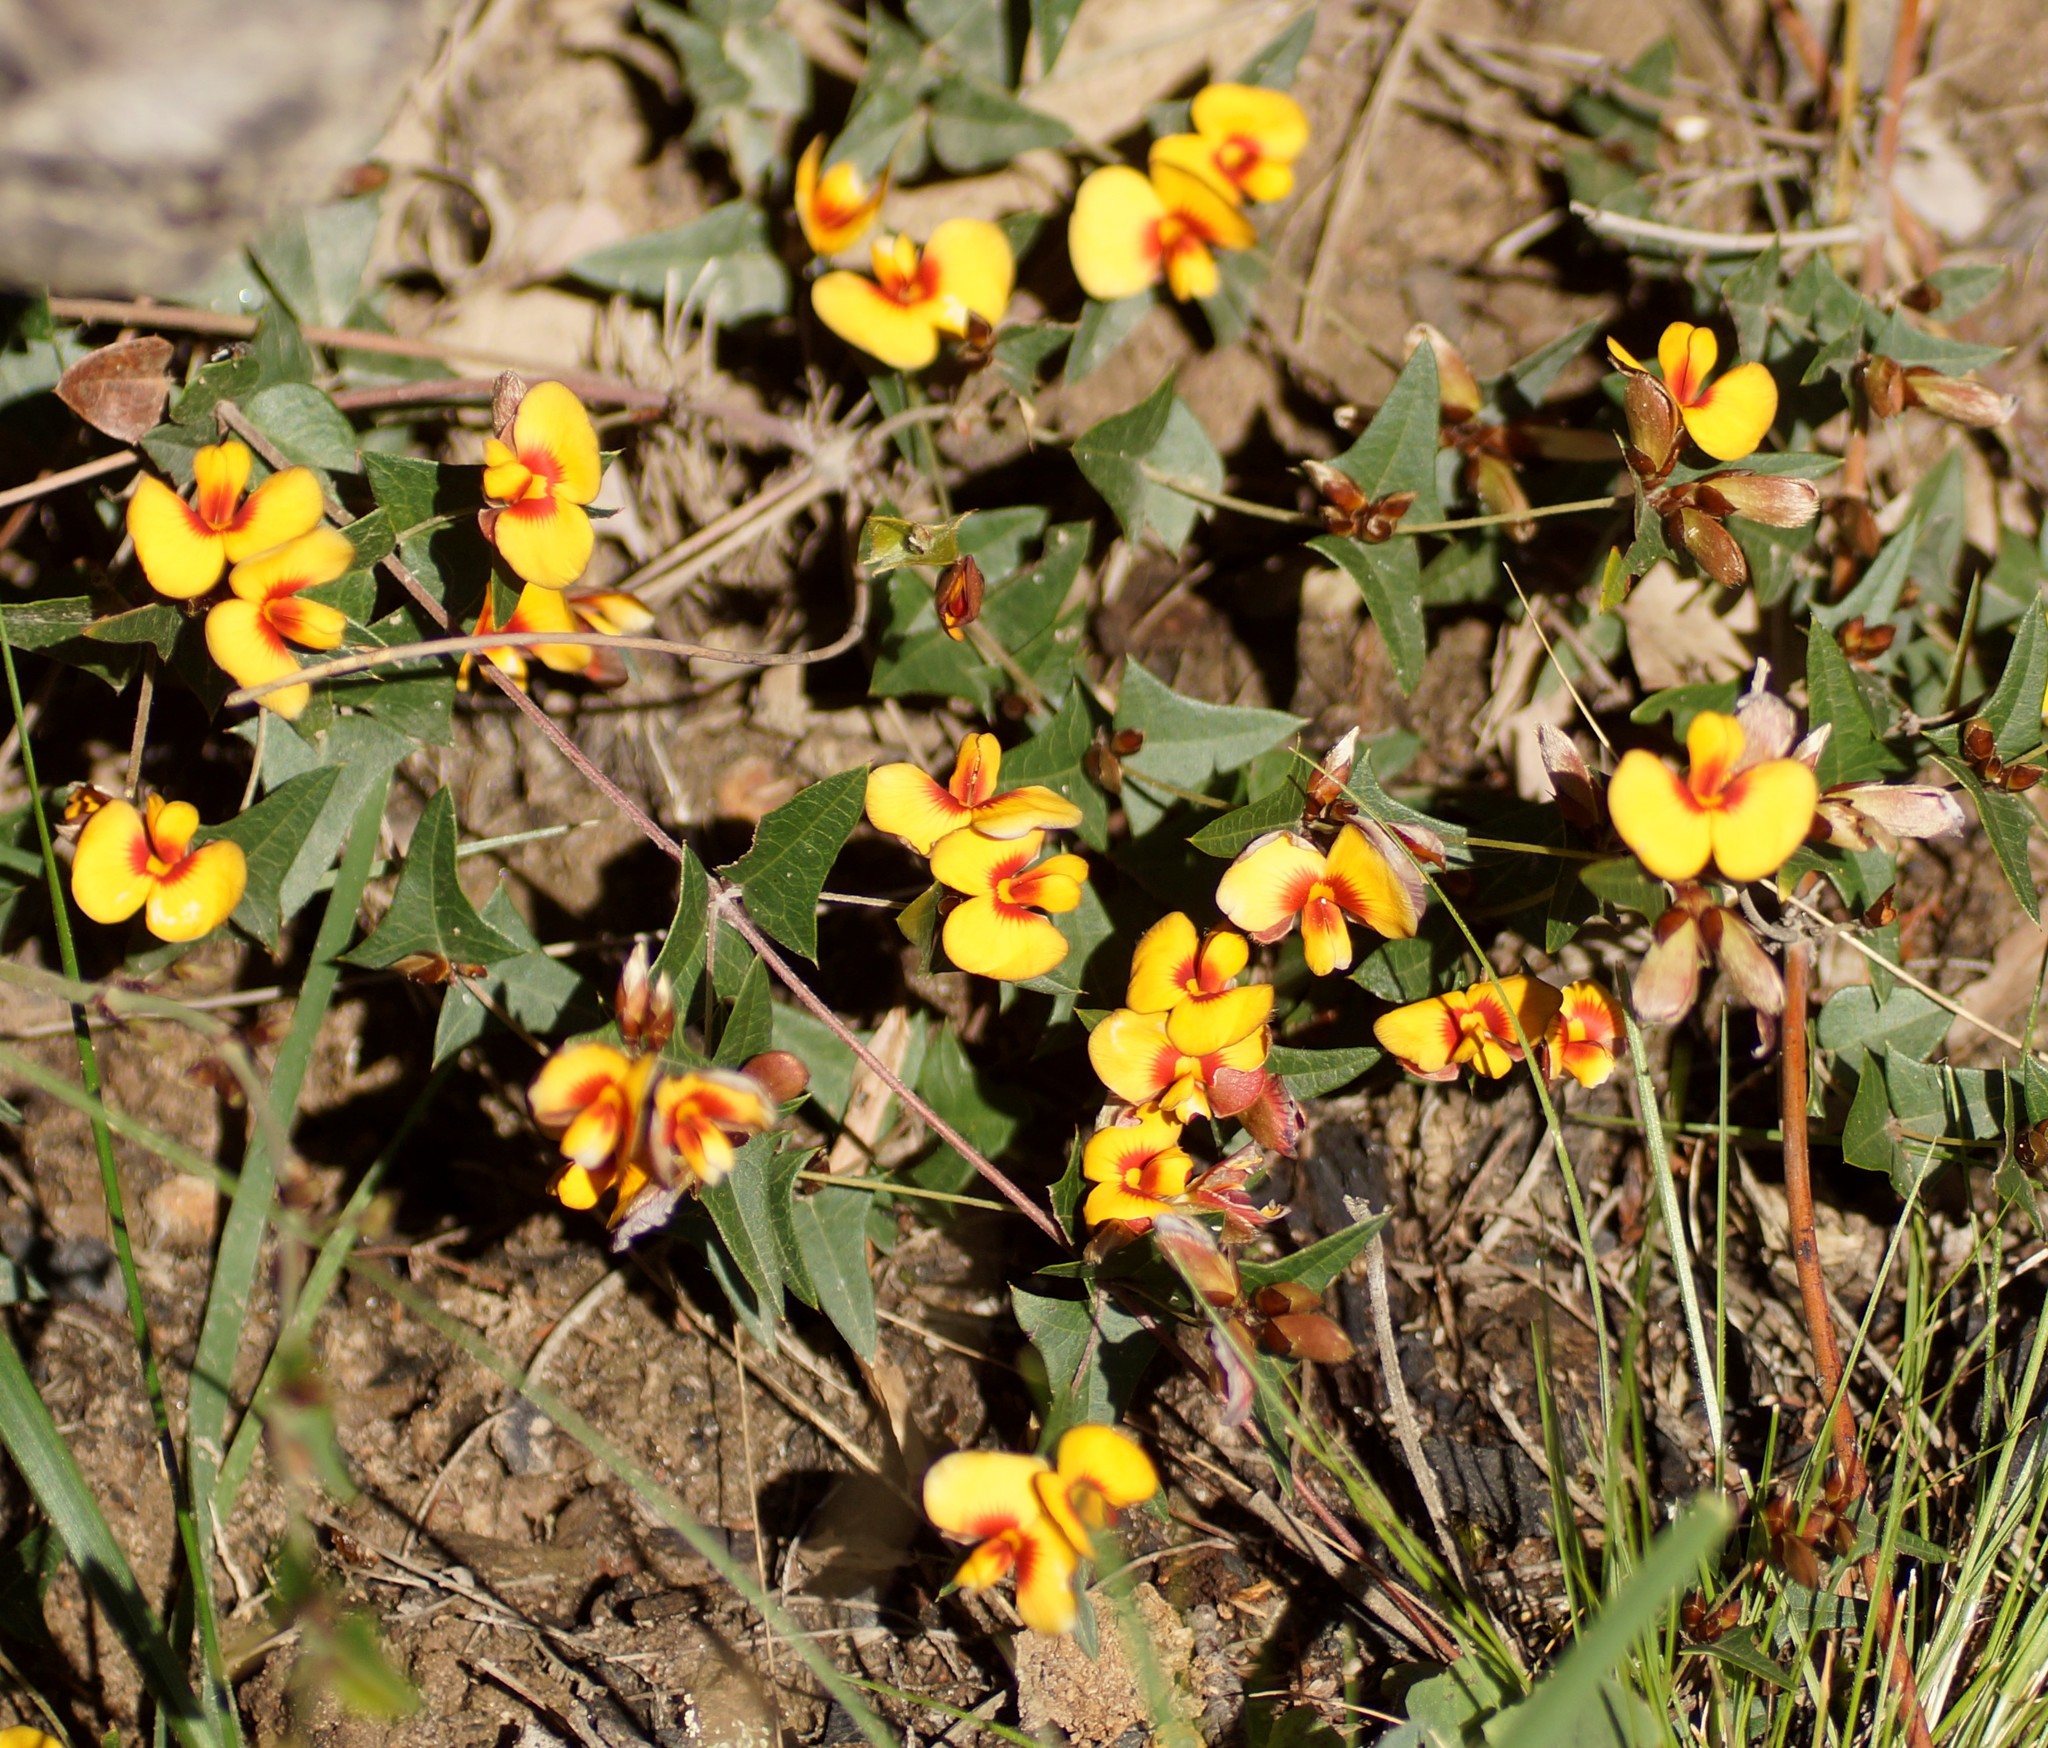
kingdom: Plantae
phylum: Tracheophyta
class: Magnoliopsida
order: Fabales
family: Fabaceae
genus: Platylobium
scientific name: Platylobium obtusangulum
